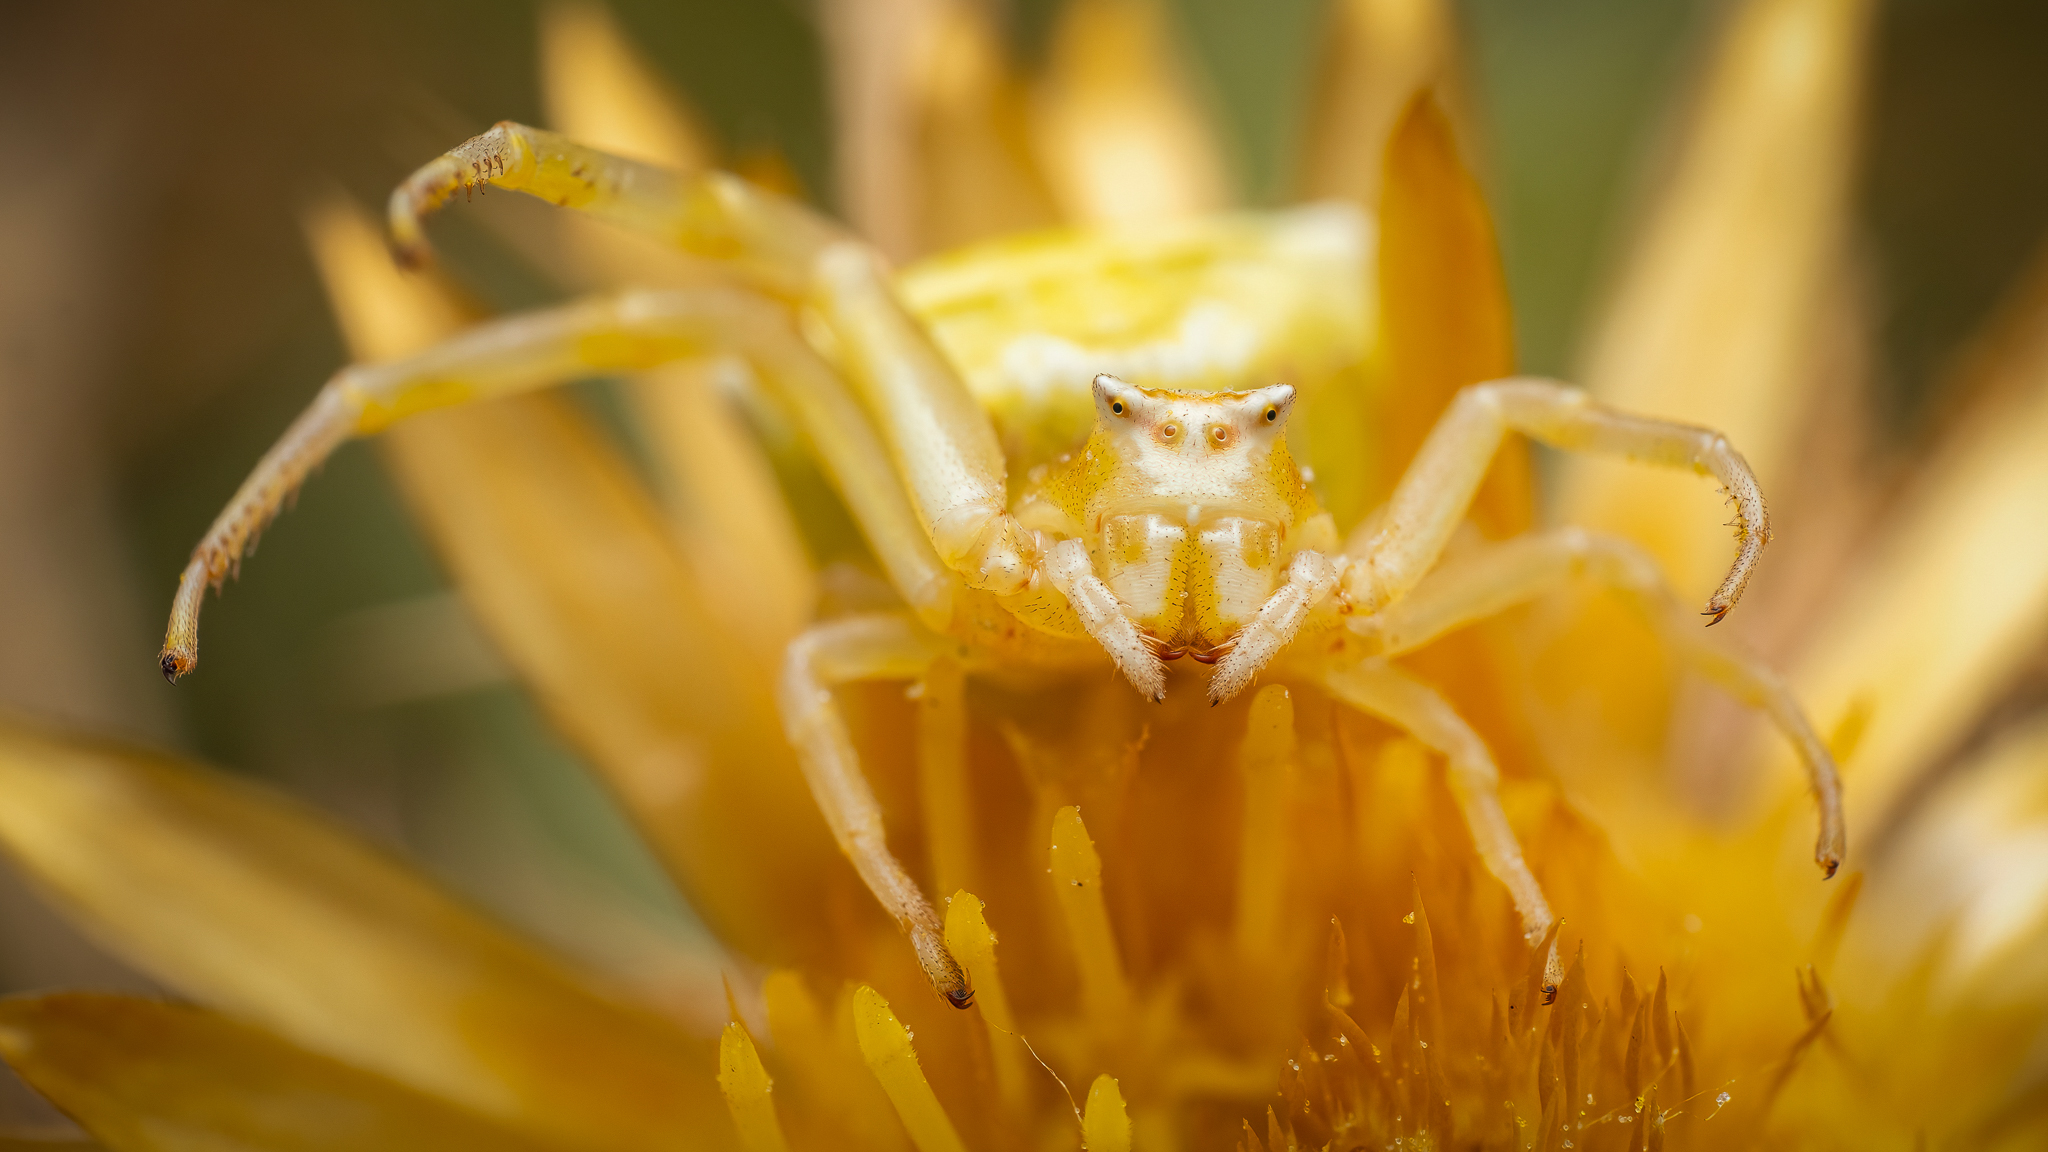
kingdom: Animalia
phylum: Arthropoda
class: Arachnida
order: Araneae
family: Thomisidae
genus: Thomisus
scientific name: Thomisus onustus
